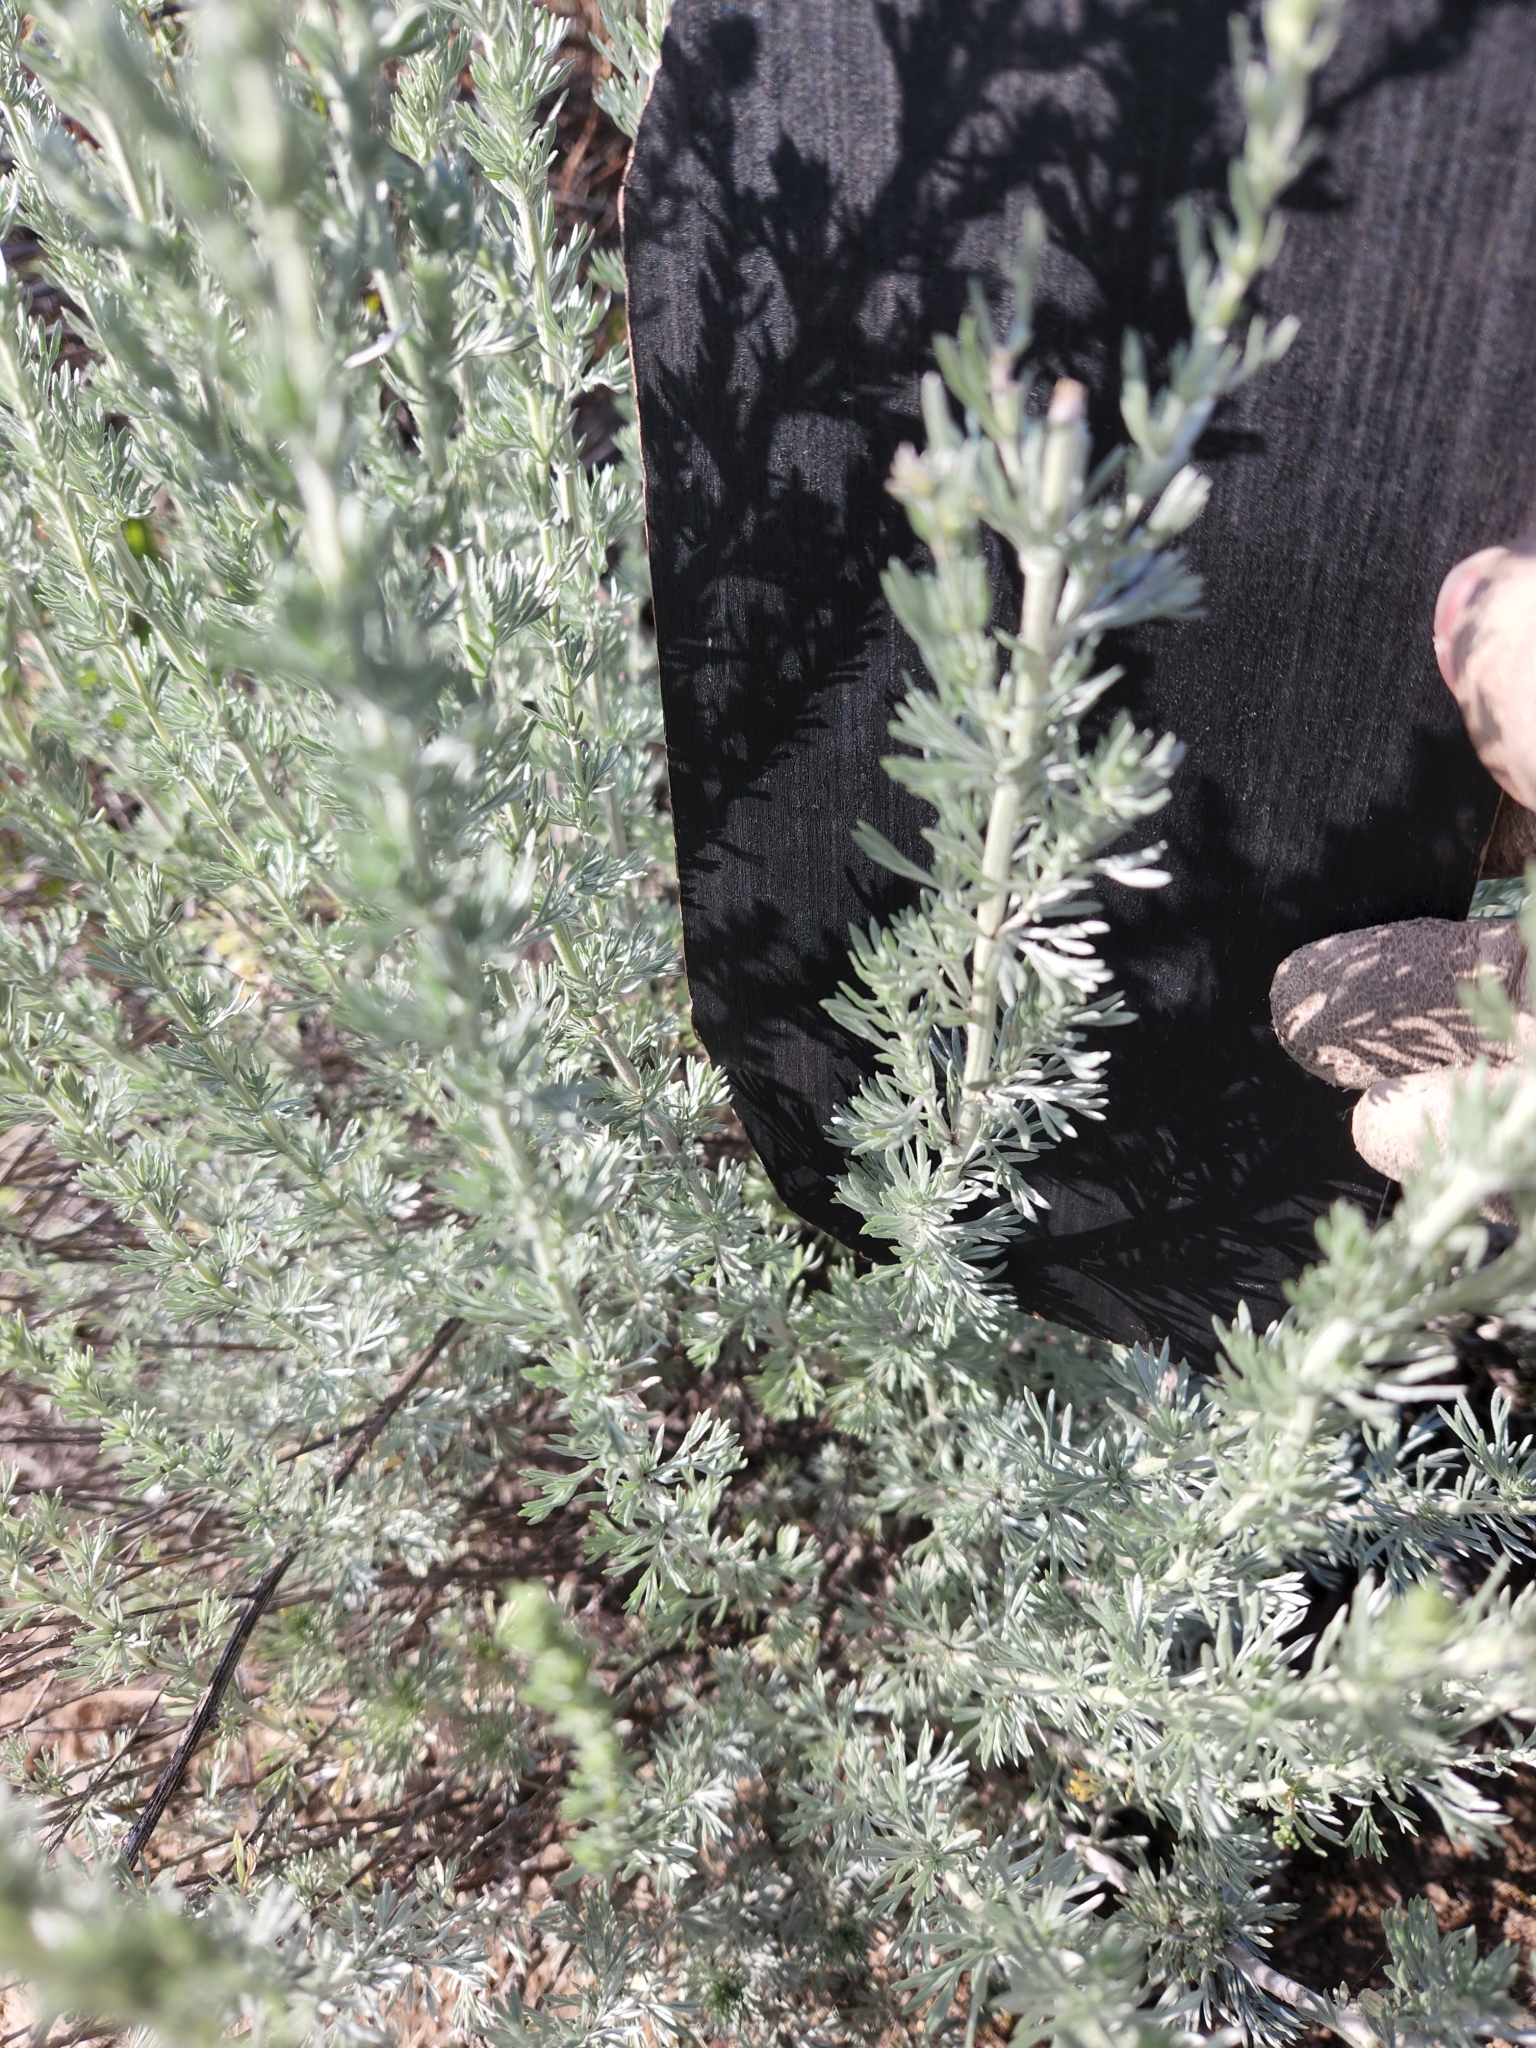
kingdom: Plantae
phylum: Tracheophyta
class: Magnoliopsida
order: Asterales
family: Asteraceae
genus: Artemisia
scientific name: Artemisia frigida
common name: Prairie sagewort
